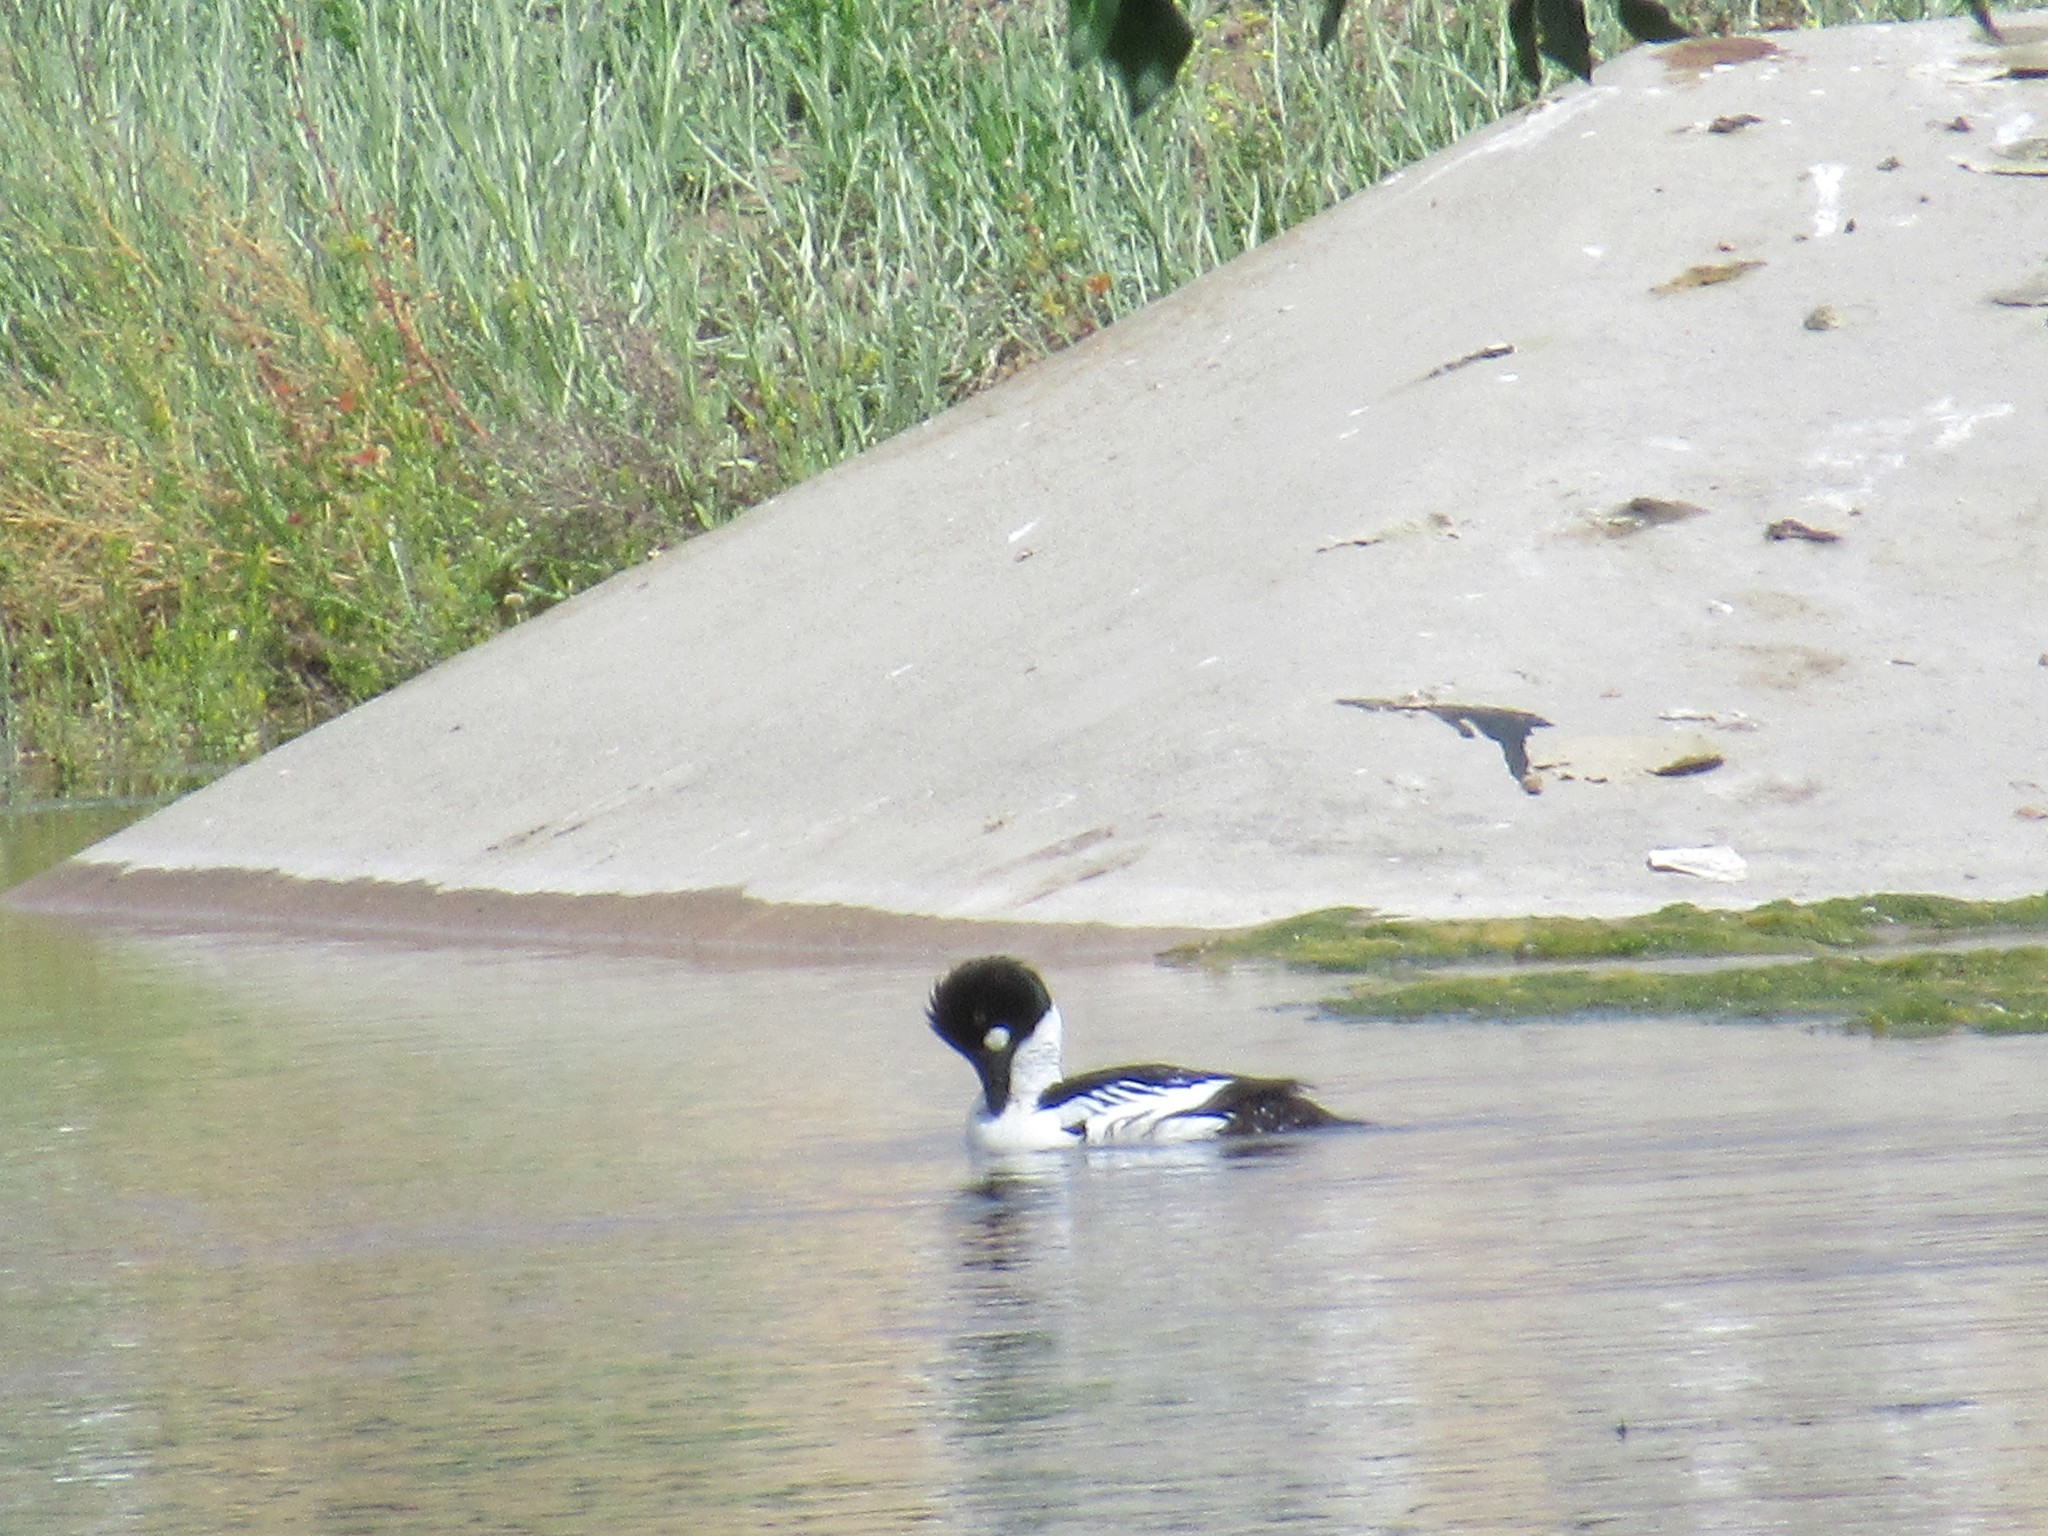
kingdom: Animalia
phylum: Chordata
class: Aves
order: Anseriformes
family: Anatidae
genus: Bucephala
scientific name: Bucephala clangula
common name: Common goldeneye
